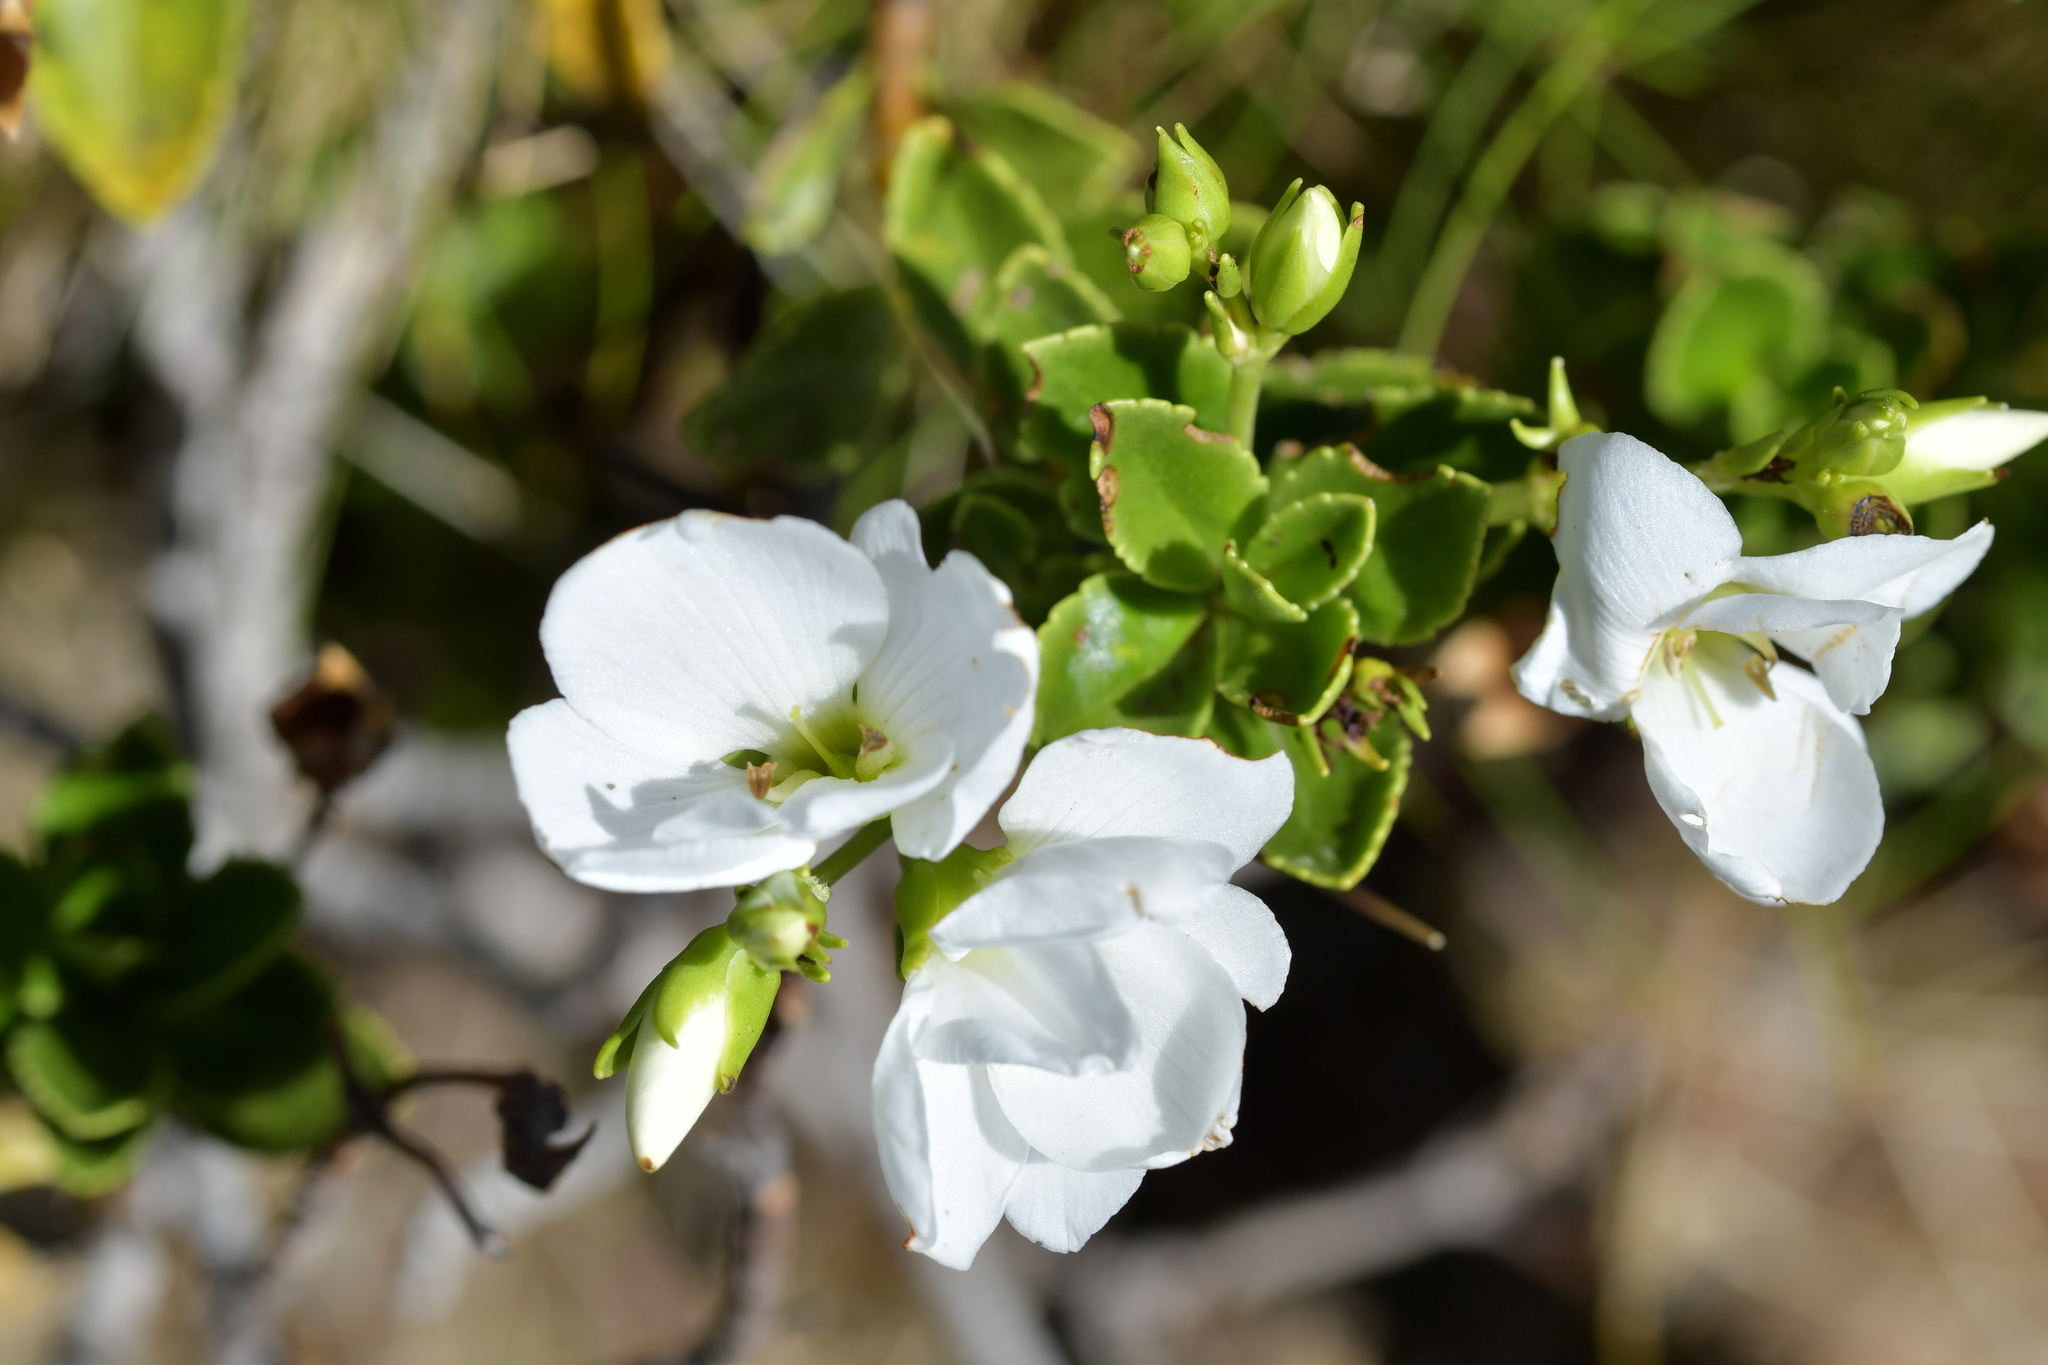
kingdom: Plantae
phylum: Tracheophyta
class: Magnoliopsida
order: Lamiales
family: Plantaginaceae
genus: Veronica
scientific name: Veronica macrantha
